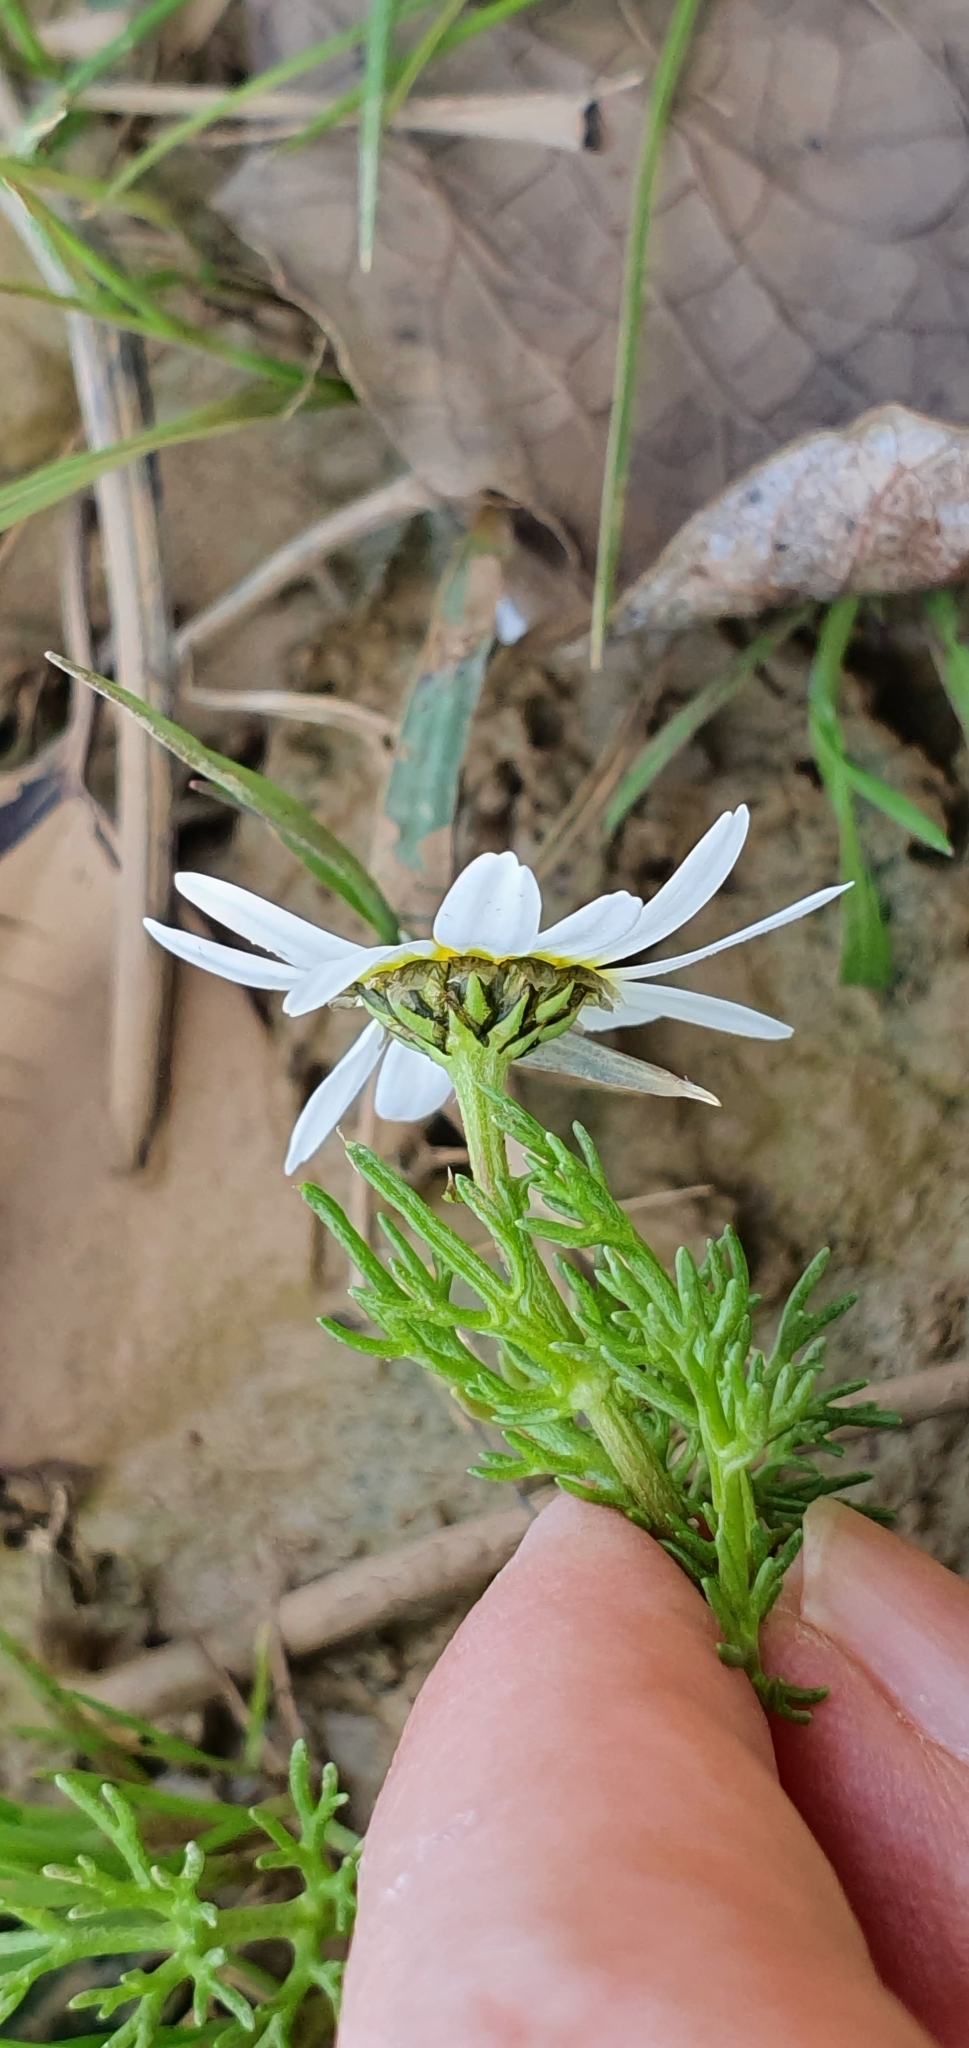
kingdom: Plantae
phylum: Tracheophyta
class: Magnoliopsida
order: Asterales
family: Asteraceae
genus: Chamaemelum
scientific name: Chamaemelum fuscatum
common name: Chamomile
